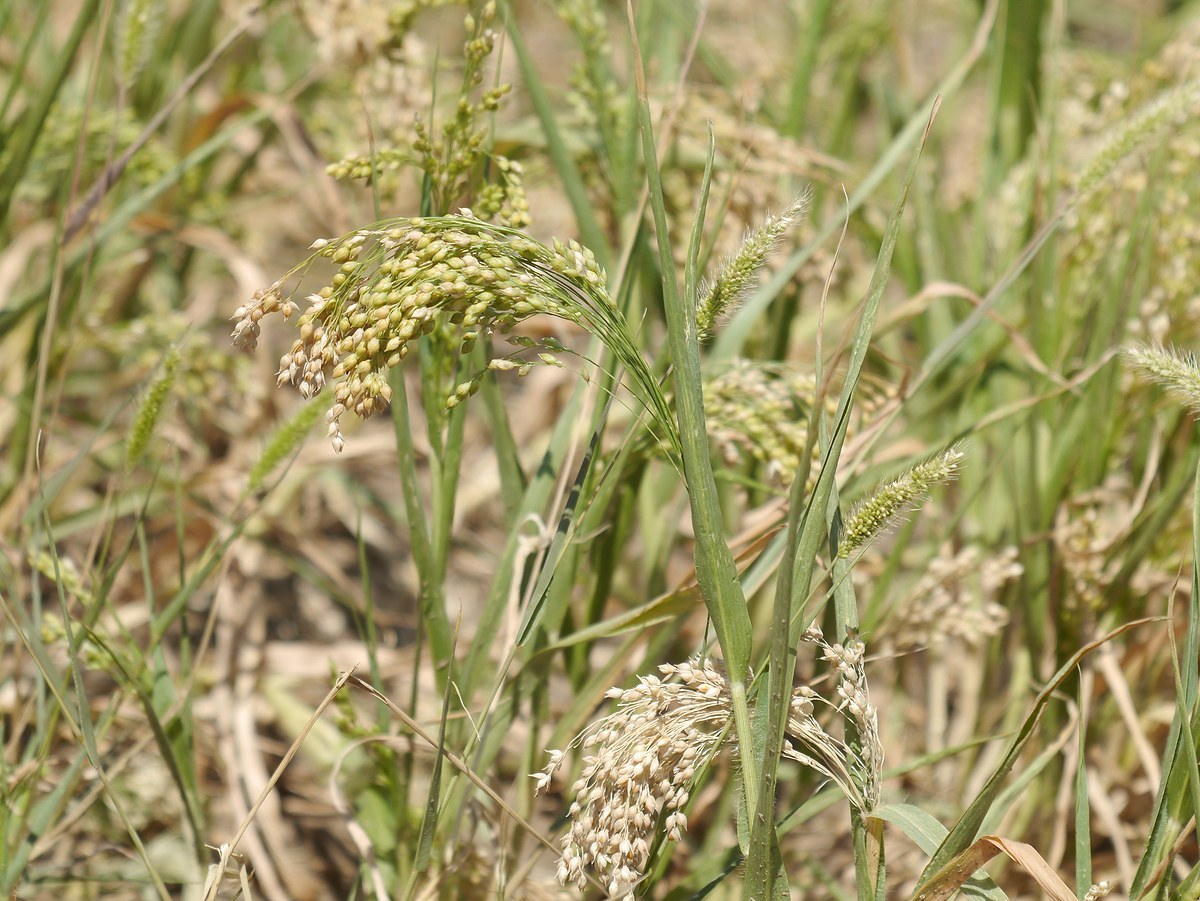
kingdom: Plantae
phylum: Tracheophyta
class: Liliopsida
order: Poales
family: Poaceae
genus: Panicum
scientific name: Panicum miliaceum
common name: Common millet
